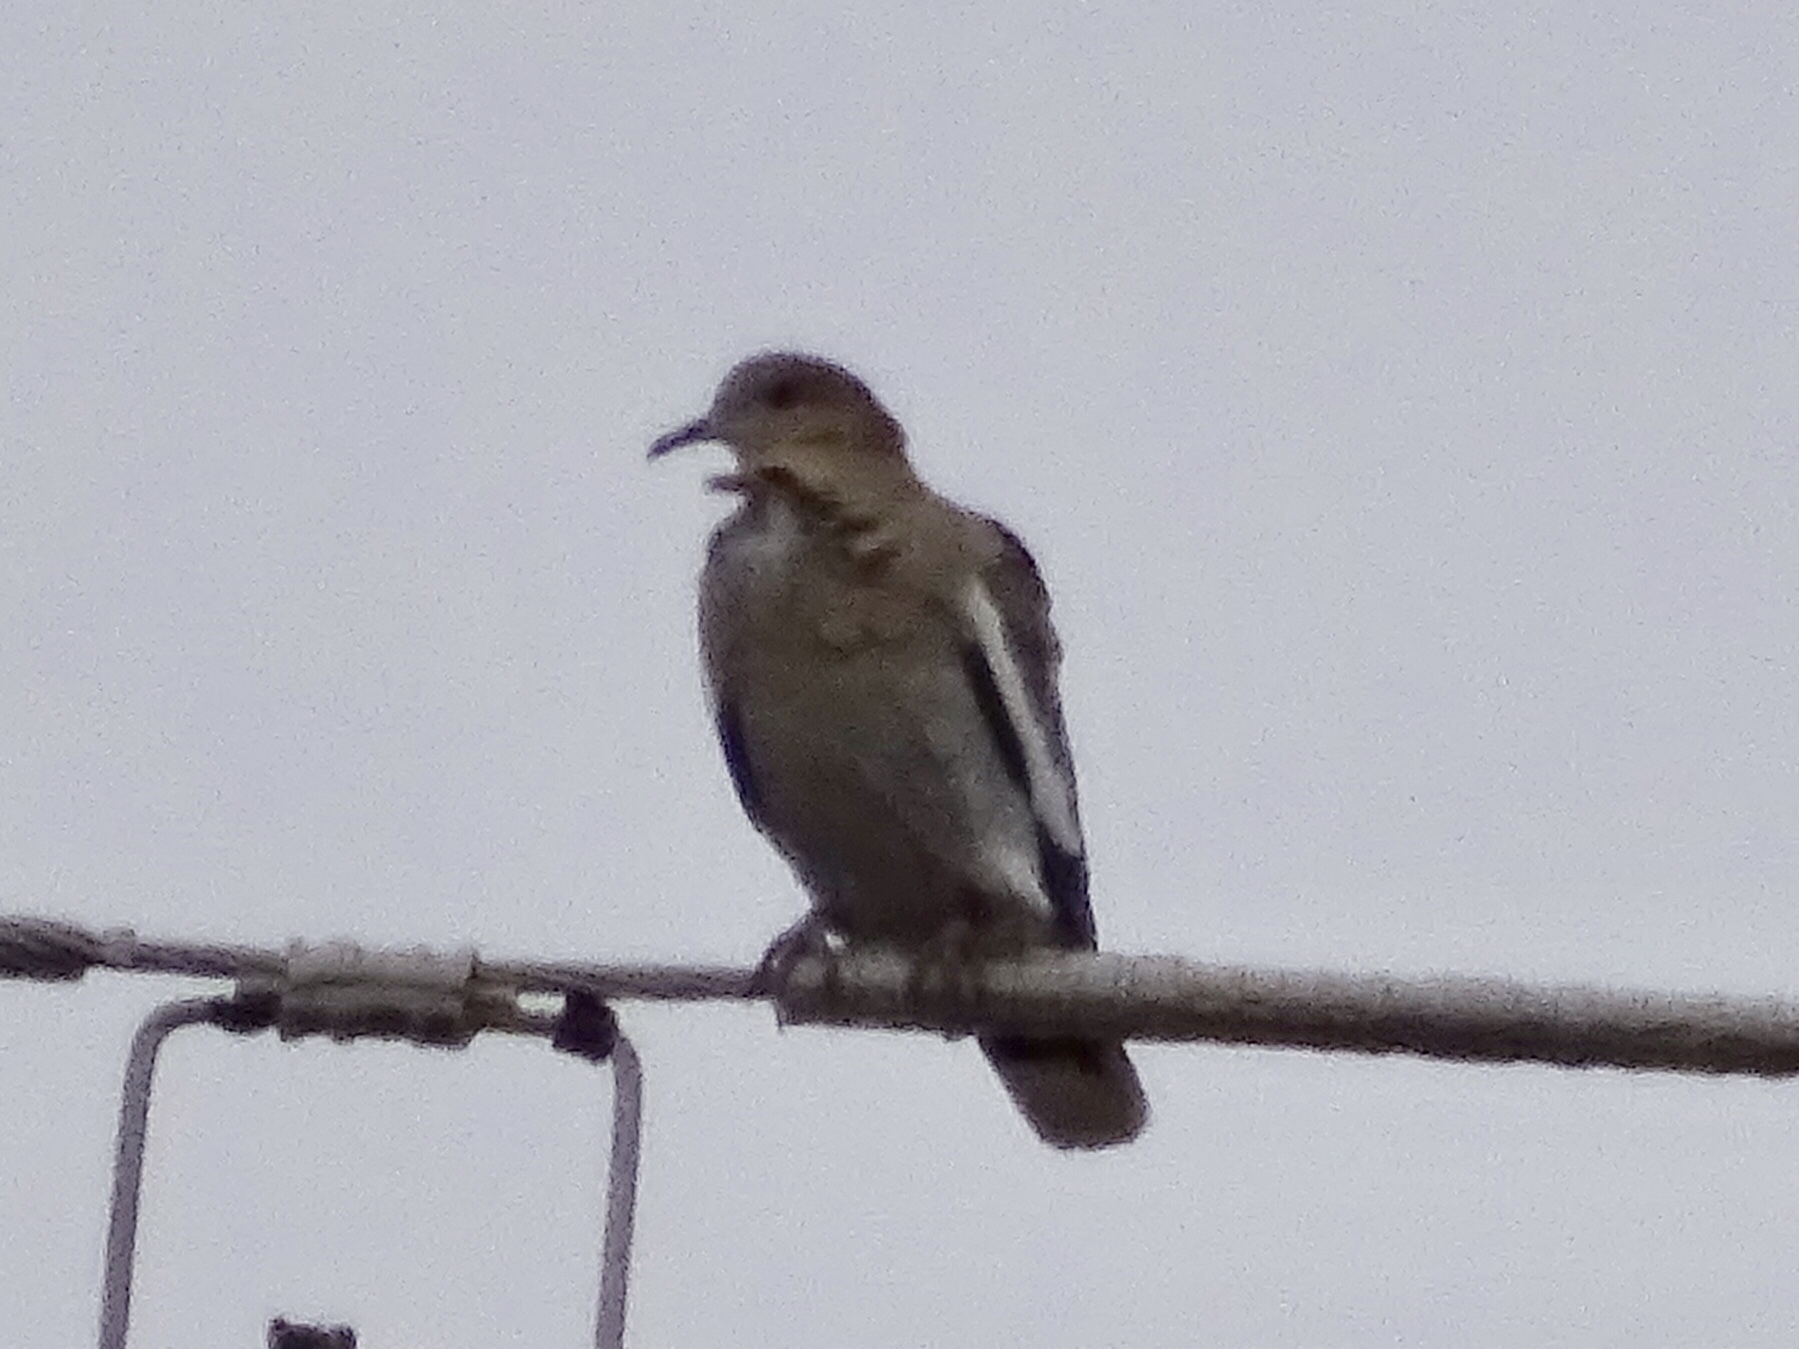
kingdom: Animalia
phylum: Chordata
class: Aves
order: Columbiformes
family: Columbidae
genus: Zenaida
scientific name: Zenaida asiatica
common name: White-winged dove
